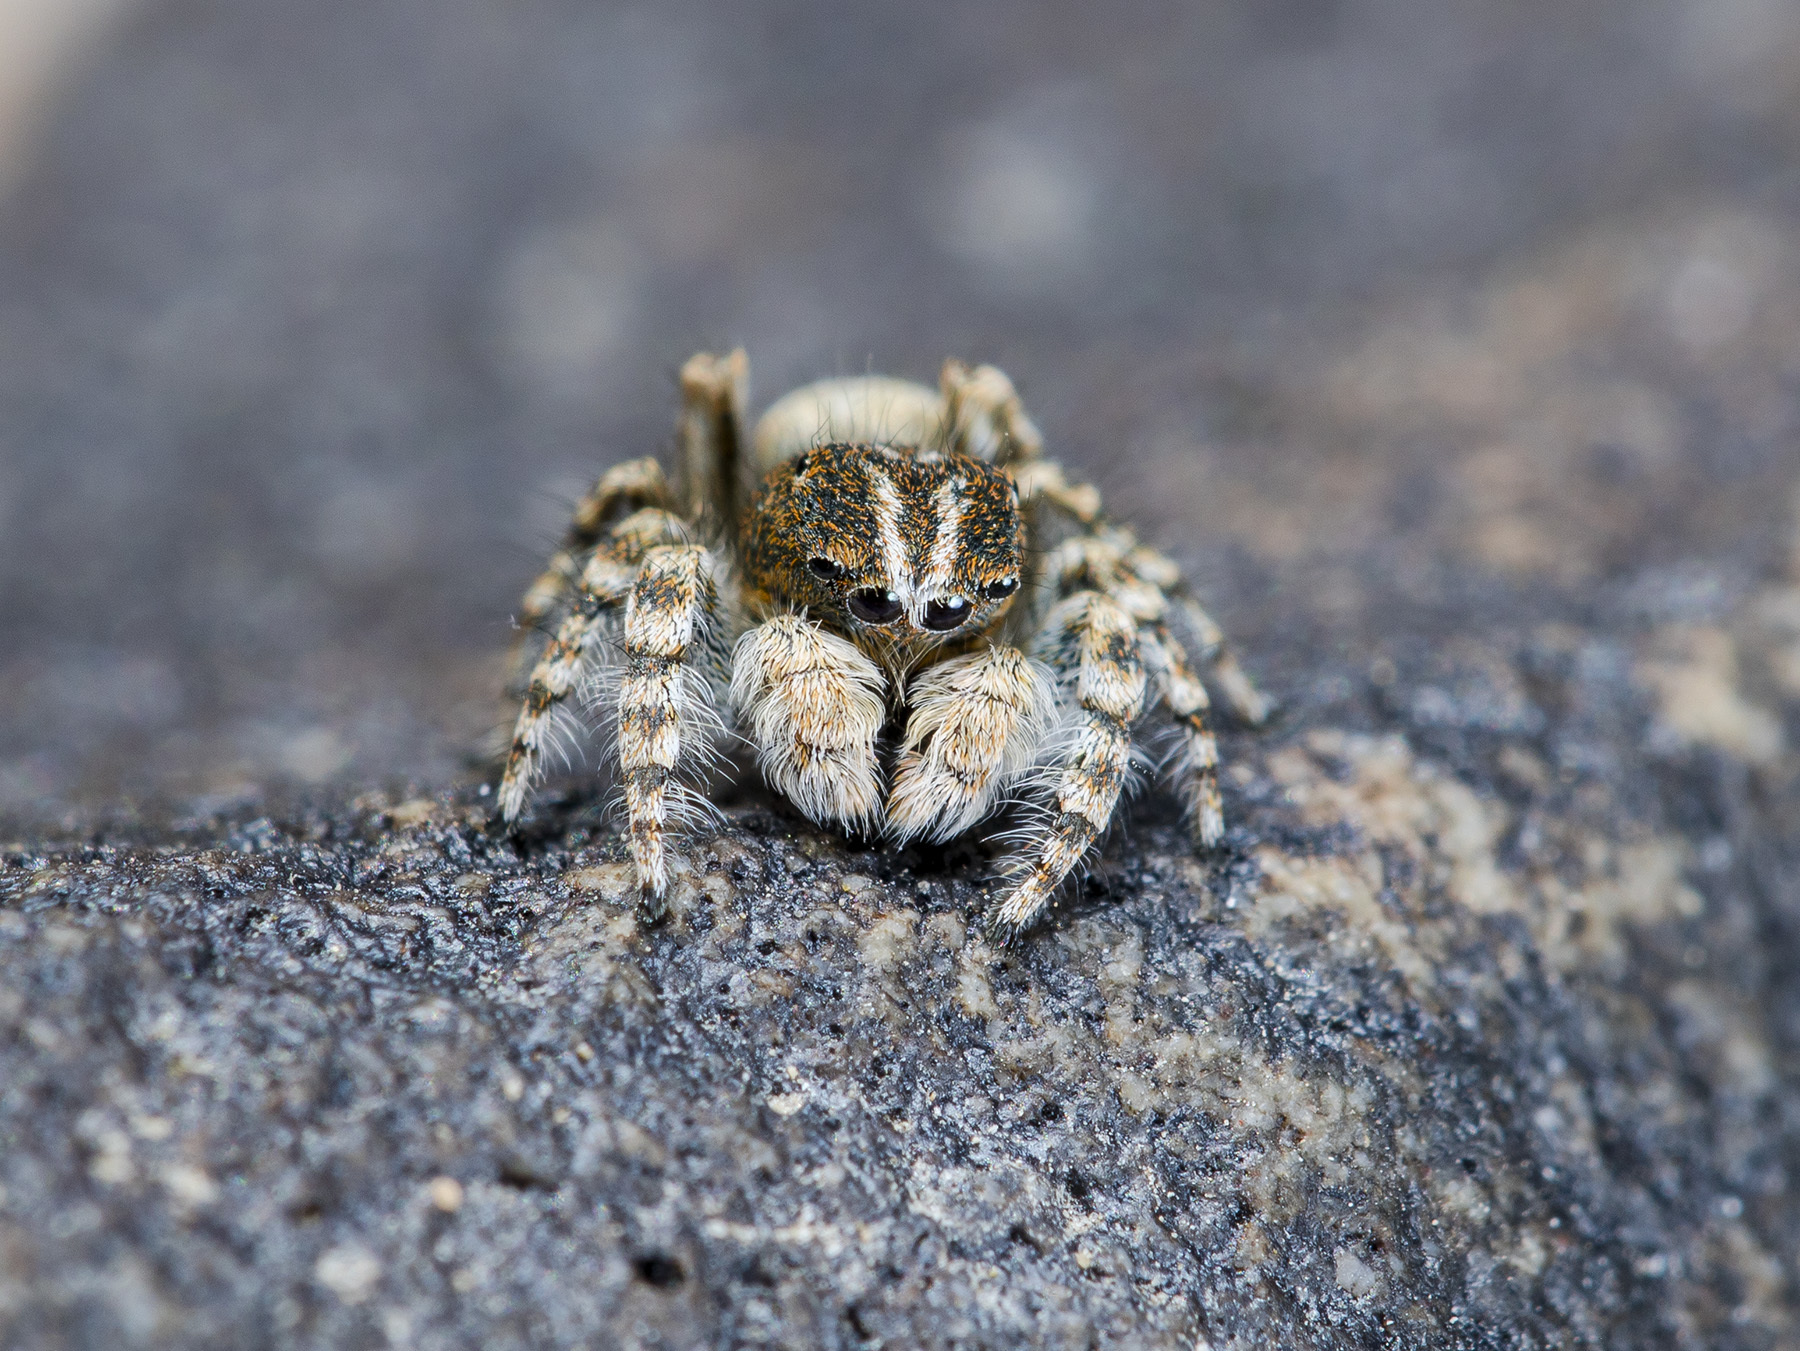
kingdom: Animalia
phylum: Arthropoda
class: Arachnida
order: Araneae
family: Salticidae
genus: Yllenus
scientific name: Yllenus zyuzini
